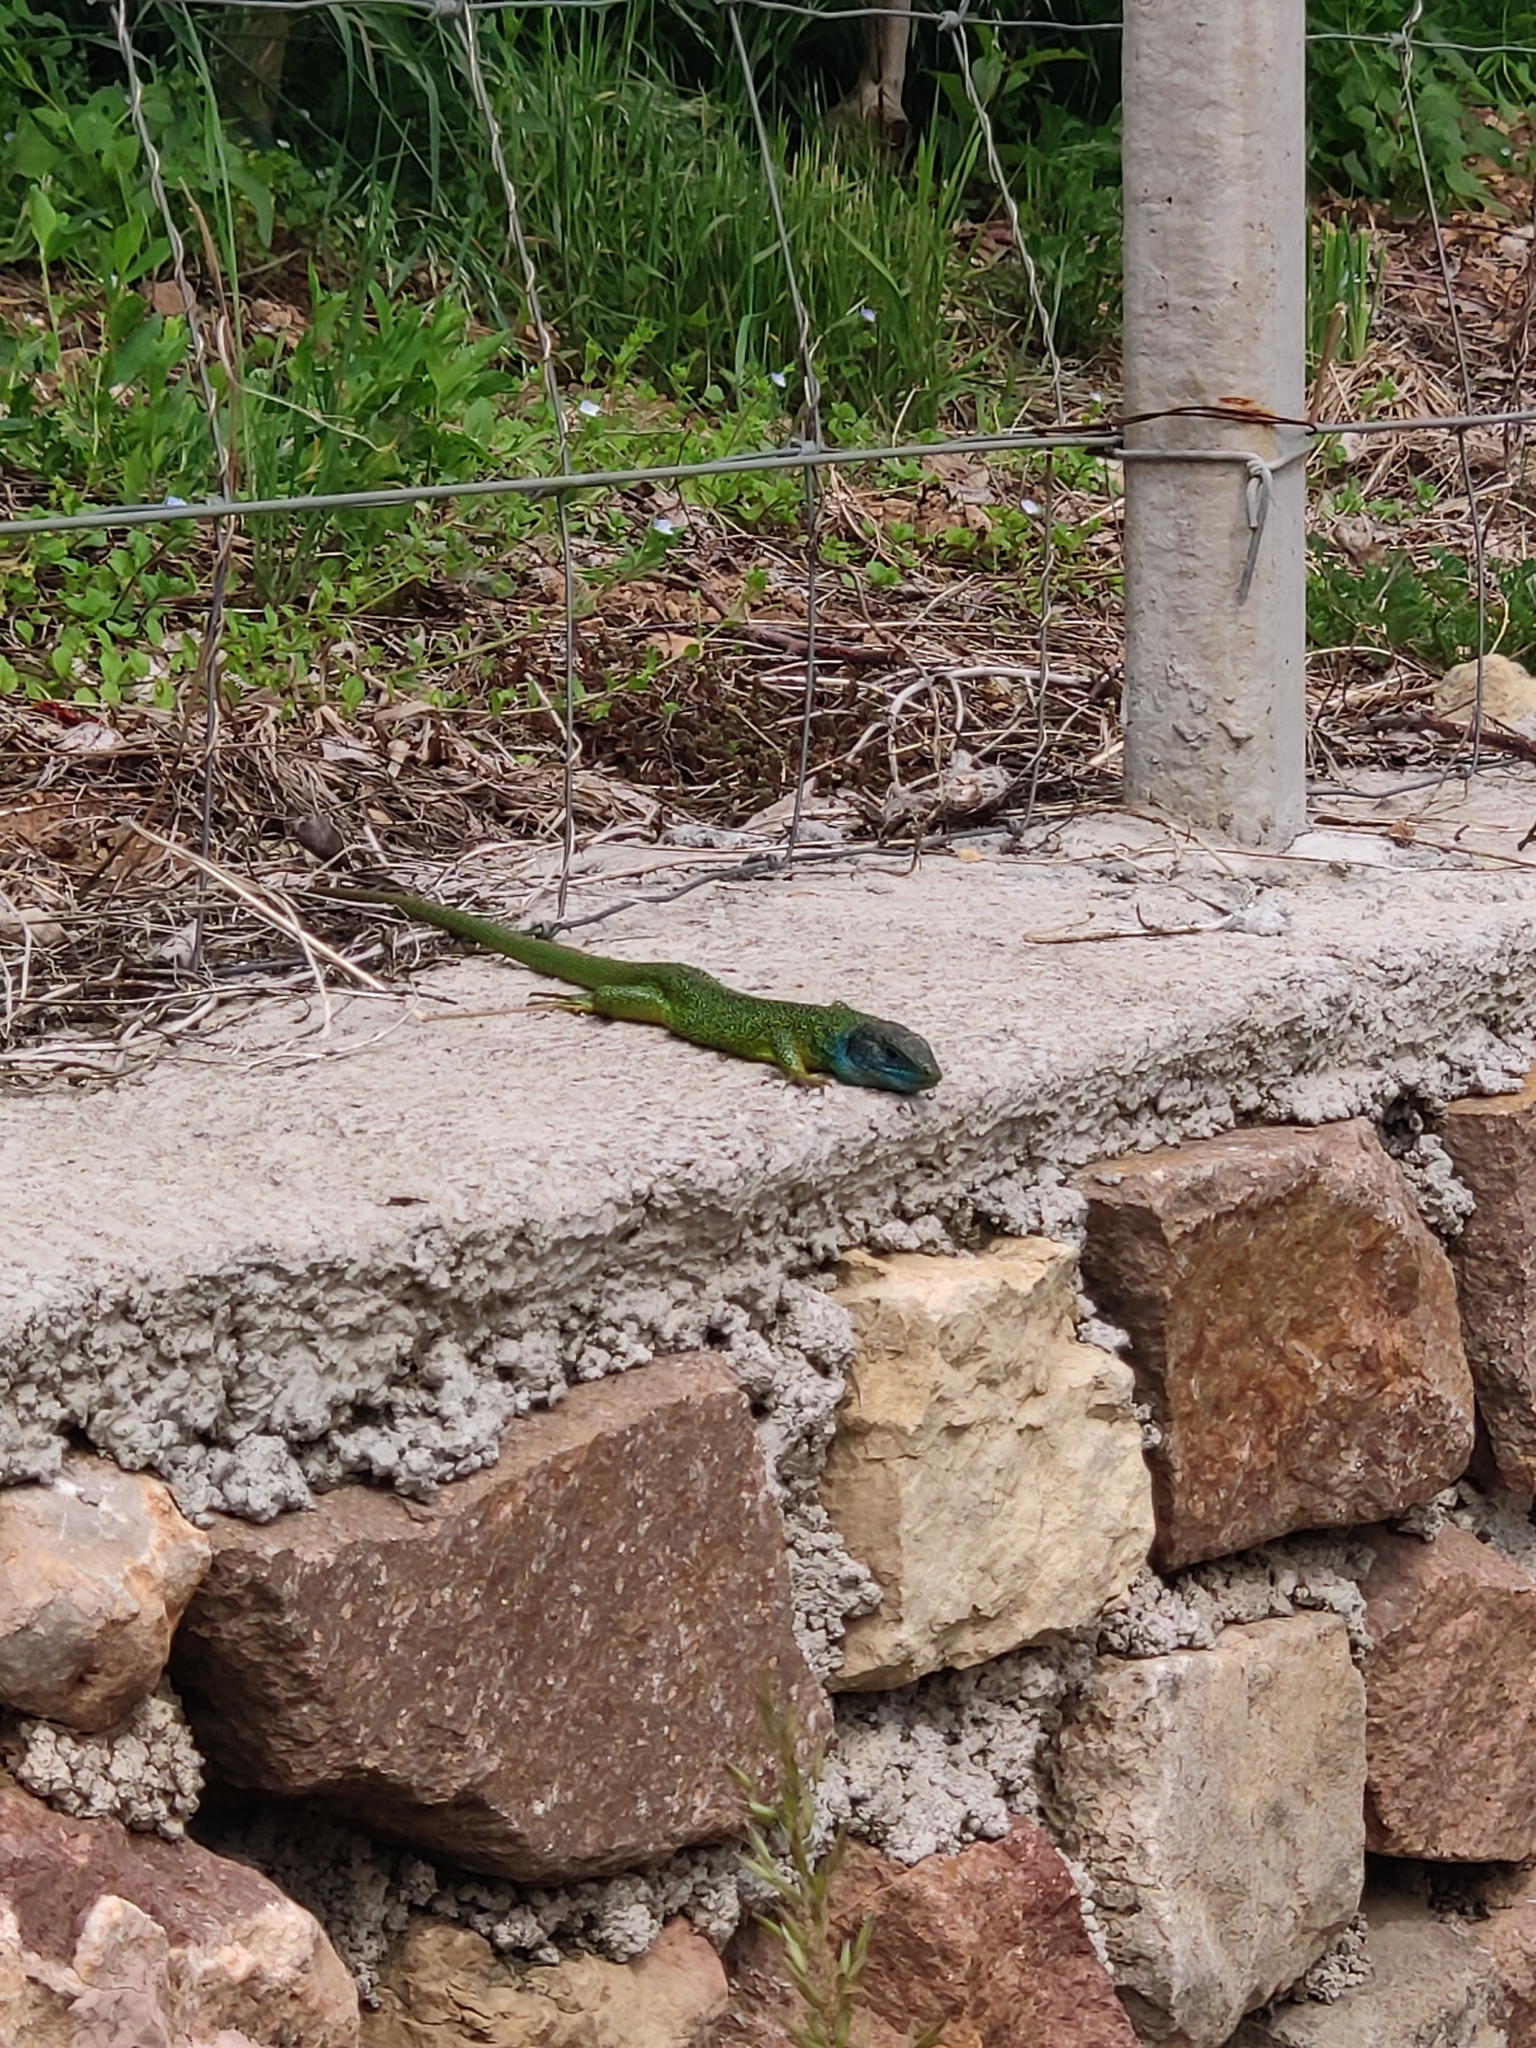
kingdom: Animalia
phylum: Chordata
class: Squamata
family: Lacertidae
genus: Lacerta
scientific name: Lacerta bilineata
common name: Western green lizard
